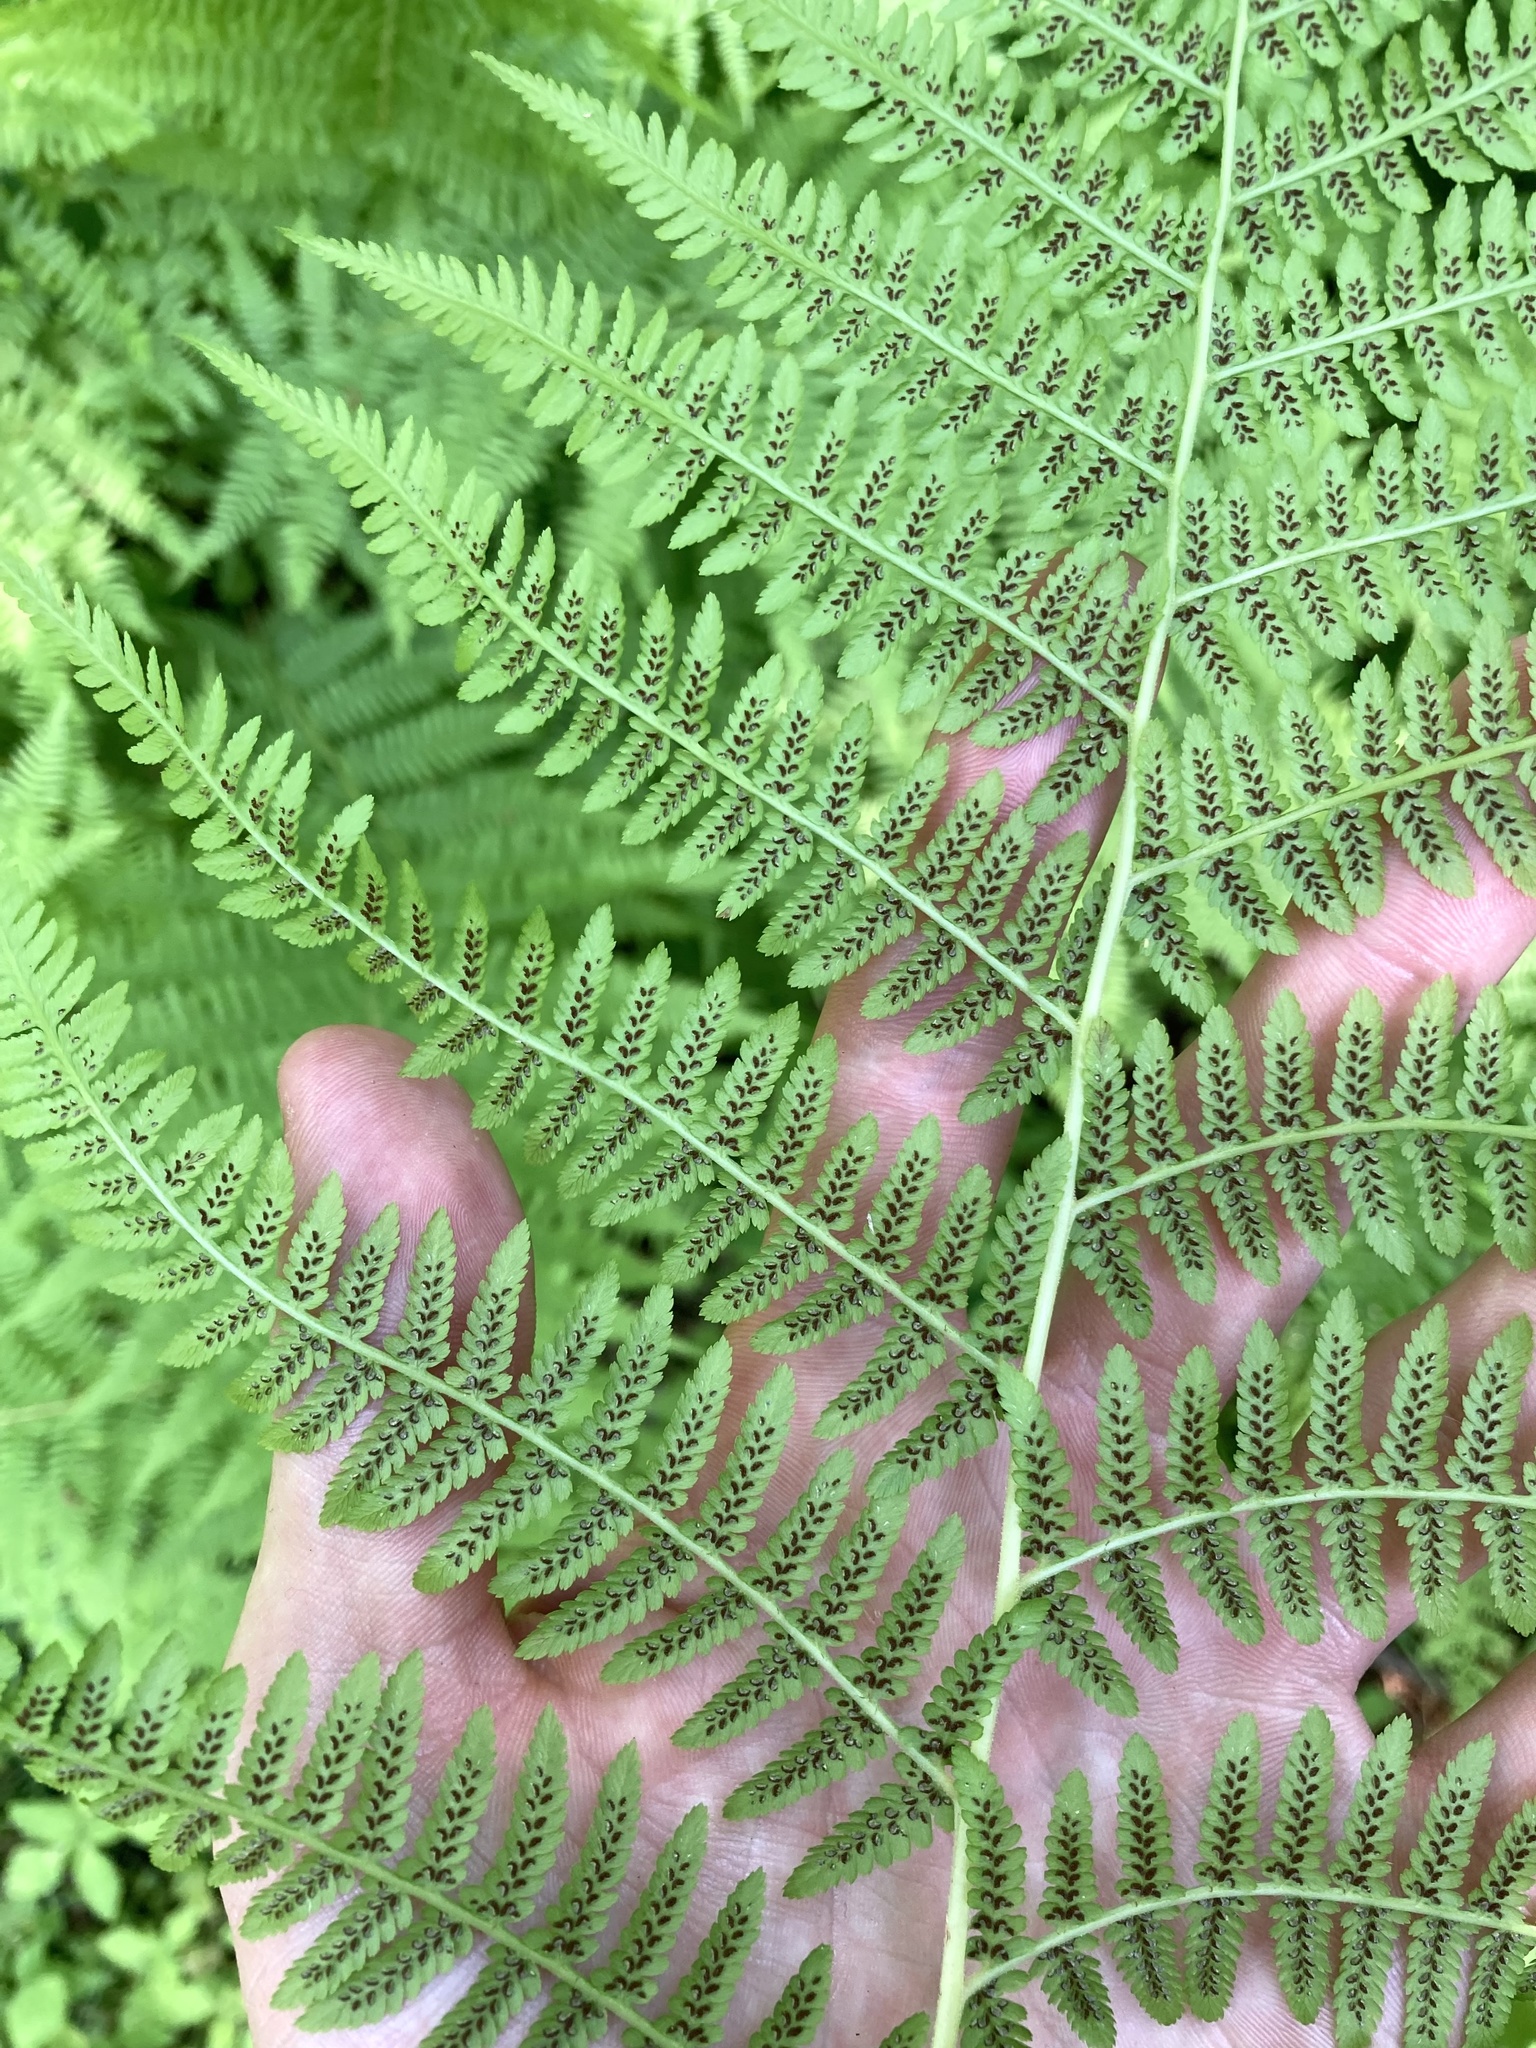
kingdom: Plantae
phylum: Tracheophyta
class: Polypodiopsida
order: Polypodiales
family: Athyriaceae
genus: Athyrium
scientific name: Athyrium angustum
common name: Northern lady fern
